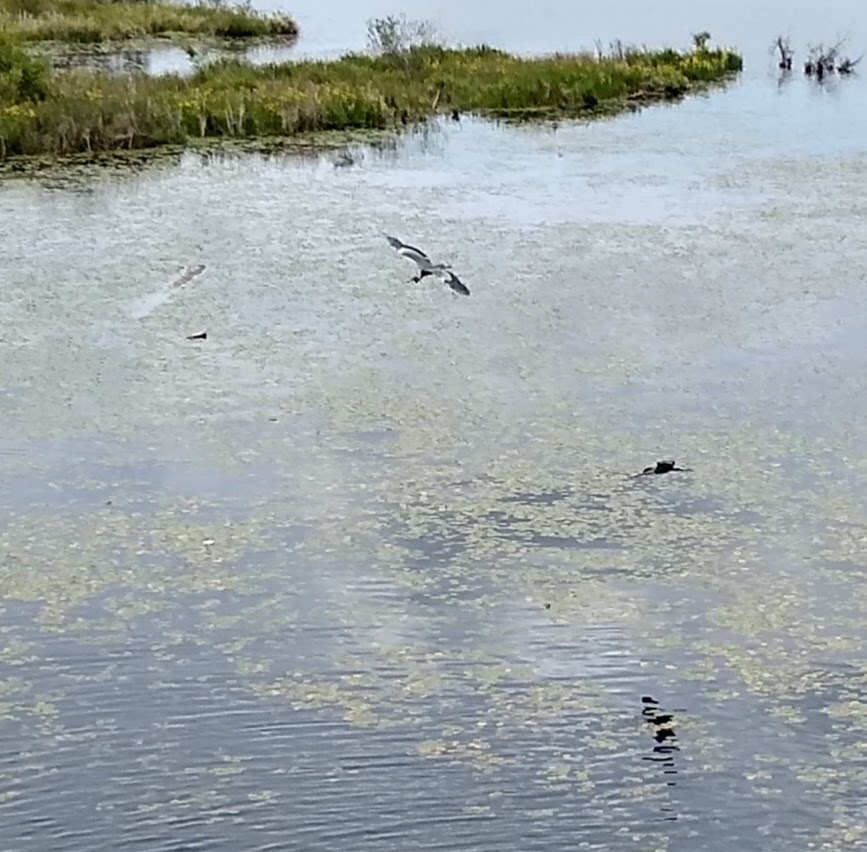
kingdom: Animalia
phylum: Chordata
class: Aves
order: Pelecaniformes
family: Ardeidae
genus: Ardea
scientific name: Ardea herodias
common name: Great blue heron
